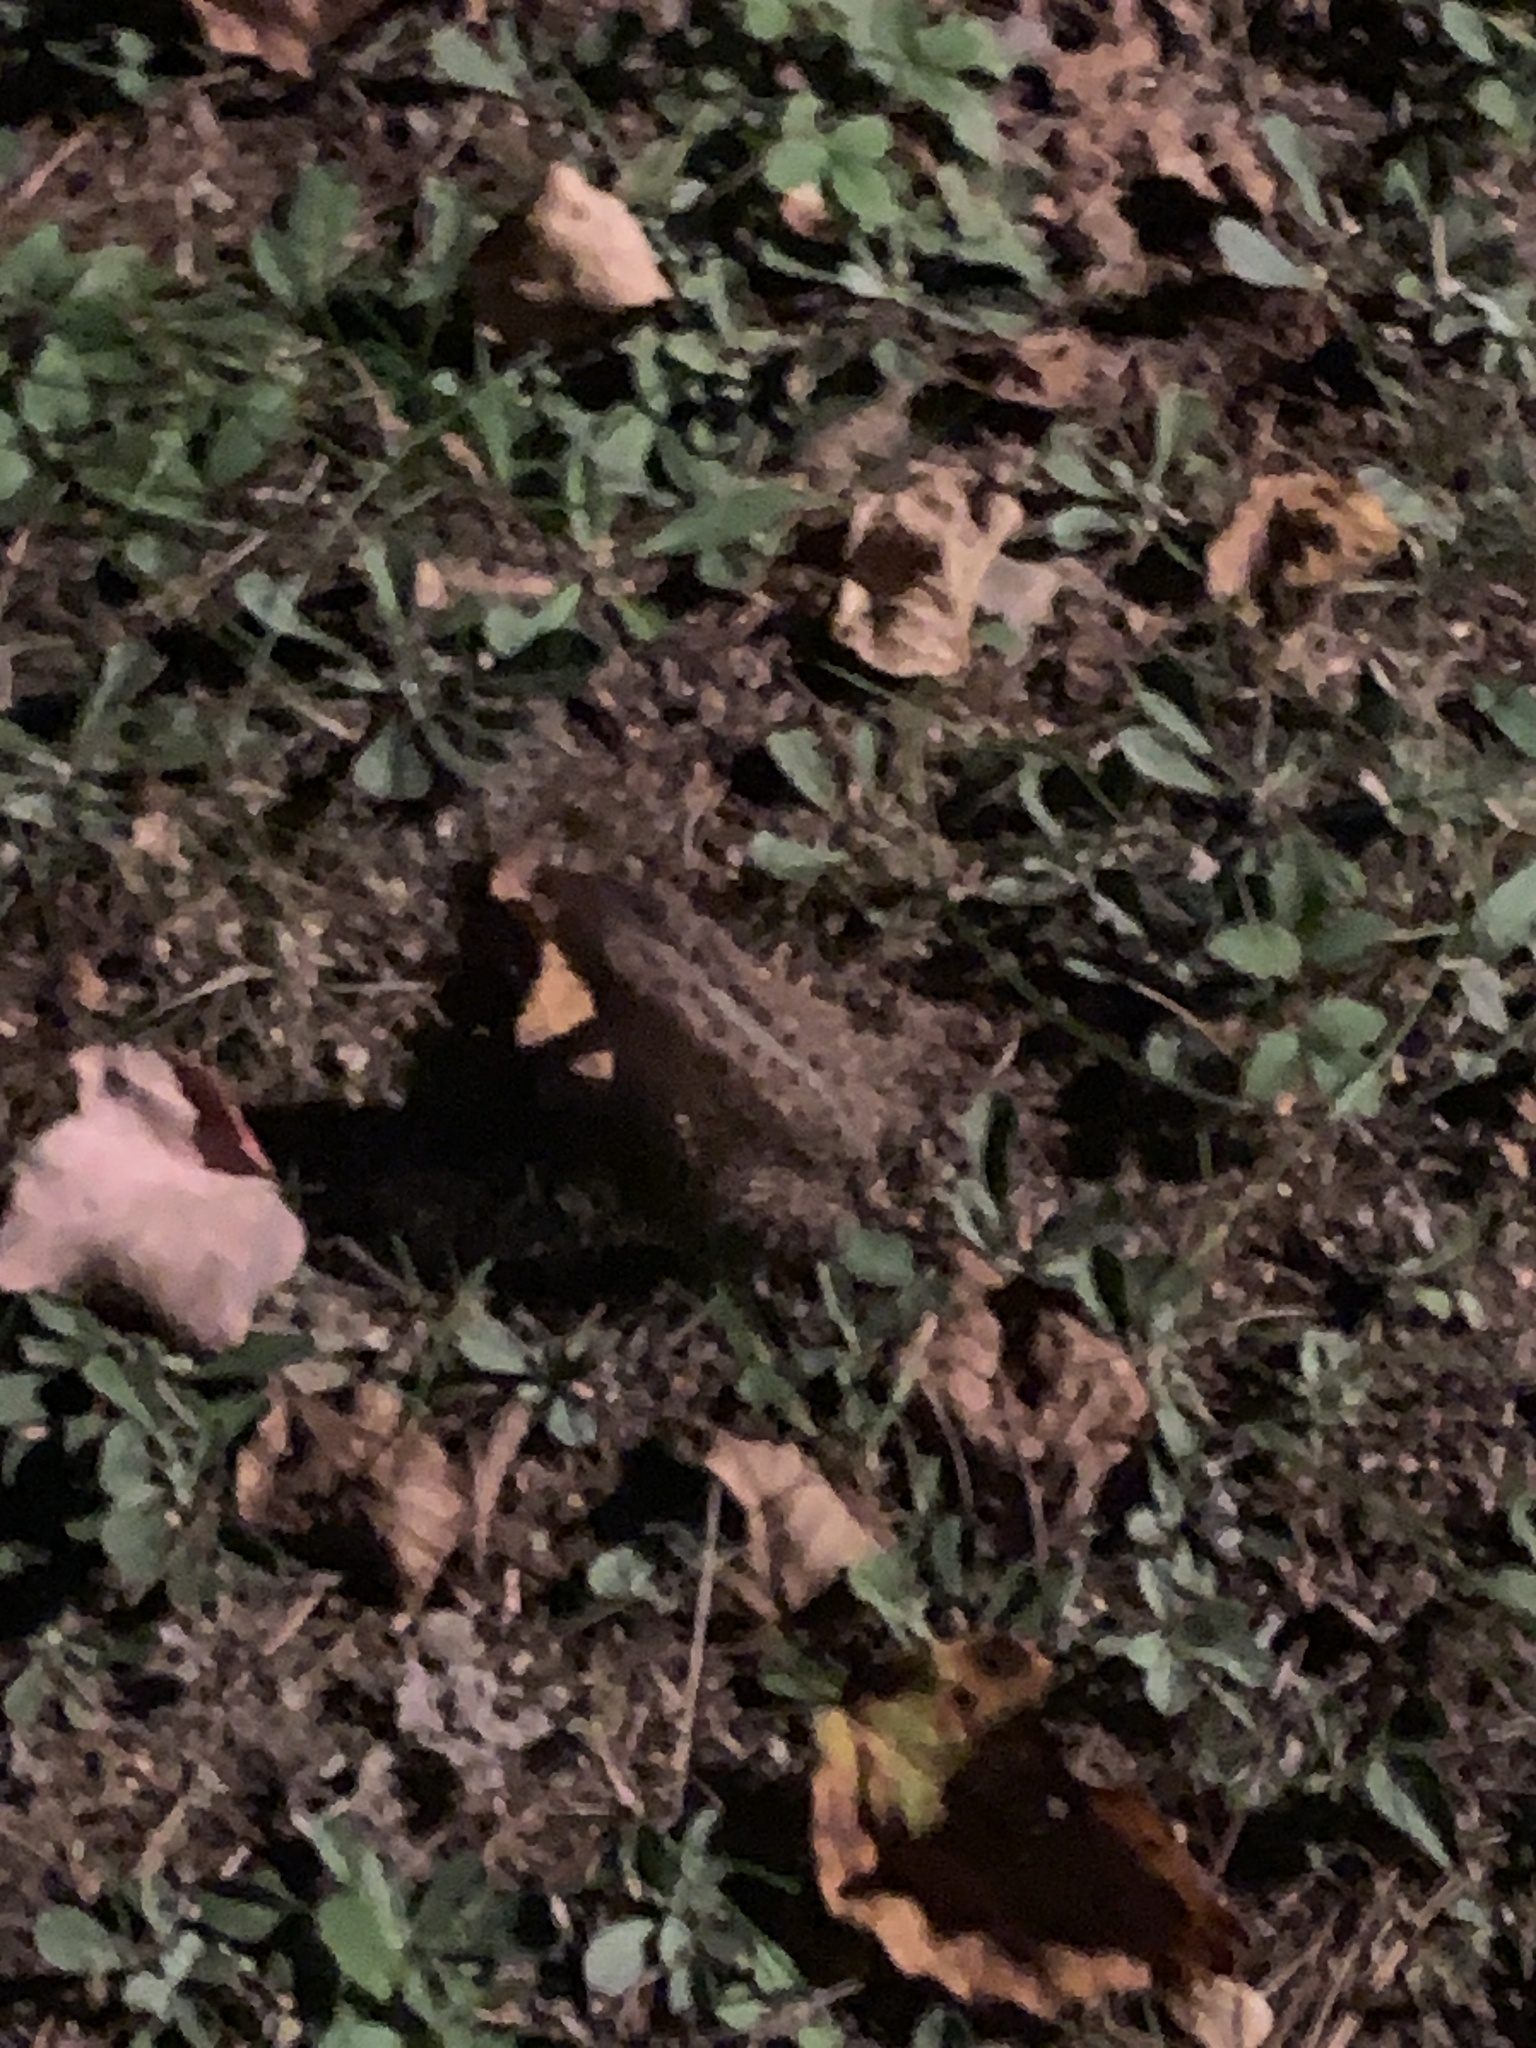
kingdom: Animalia
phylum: Chordata
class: Amphibia
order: Anura
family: Bufonidae
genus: Anaxyrus
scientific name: Anaxyrus americanus
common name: American toad
